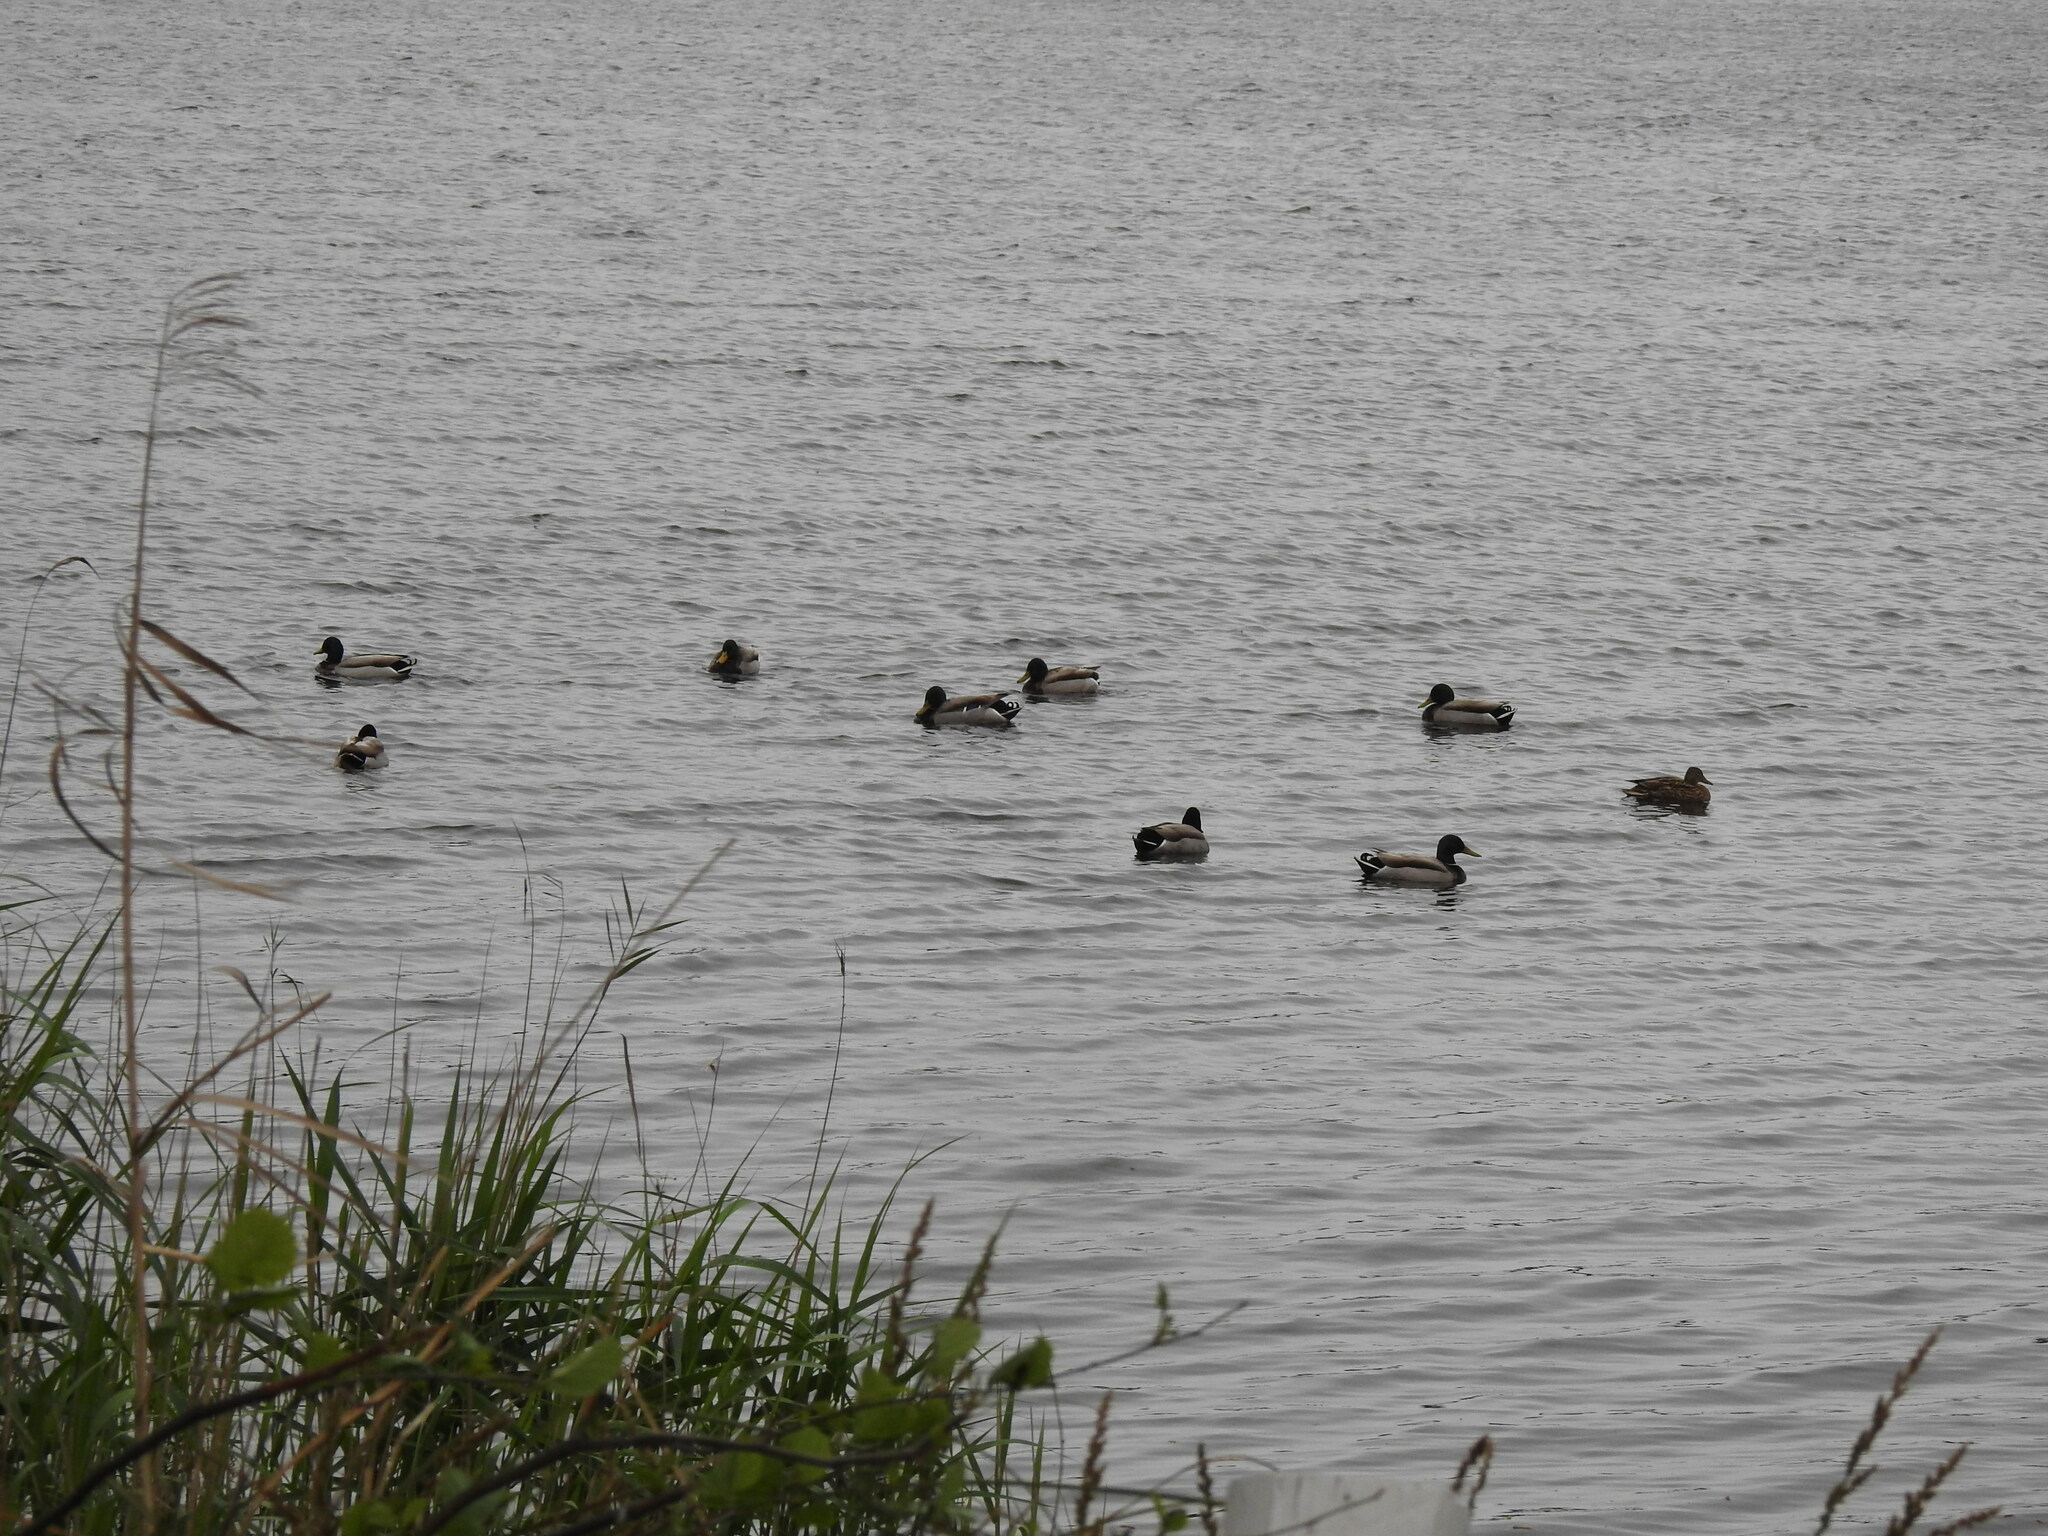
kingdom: Animalia
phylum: Chordata
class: Aves
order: Anseriformes
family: Anatidae
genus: Anas
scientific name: Anas platyrhynchos
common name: Mallard
